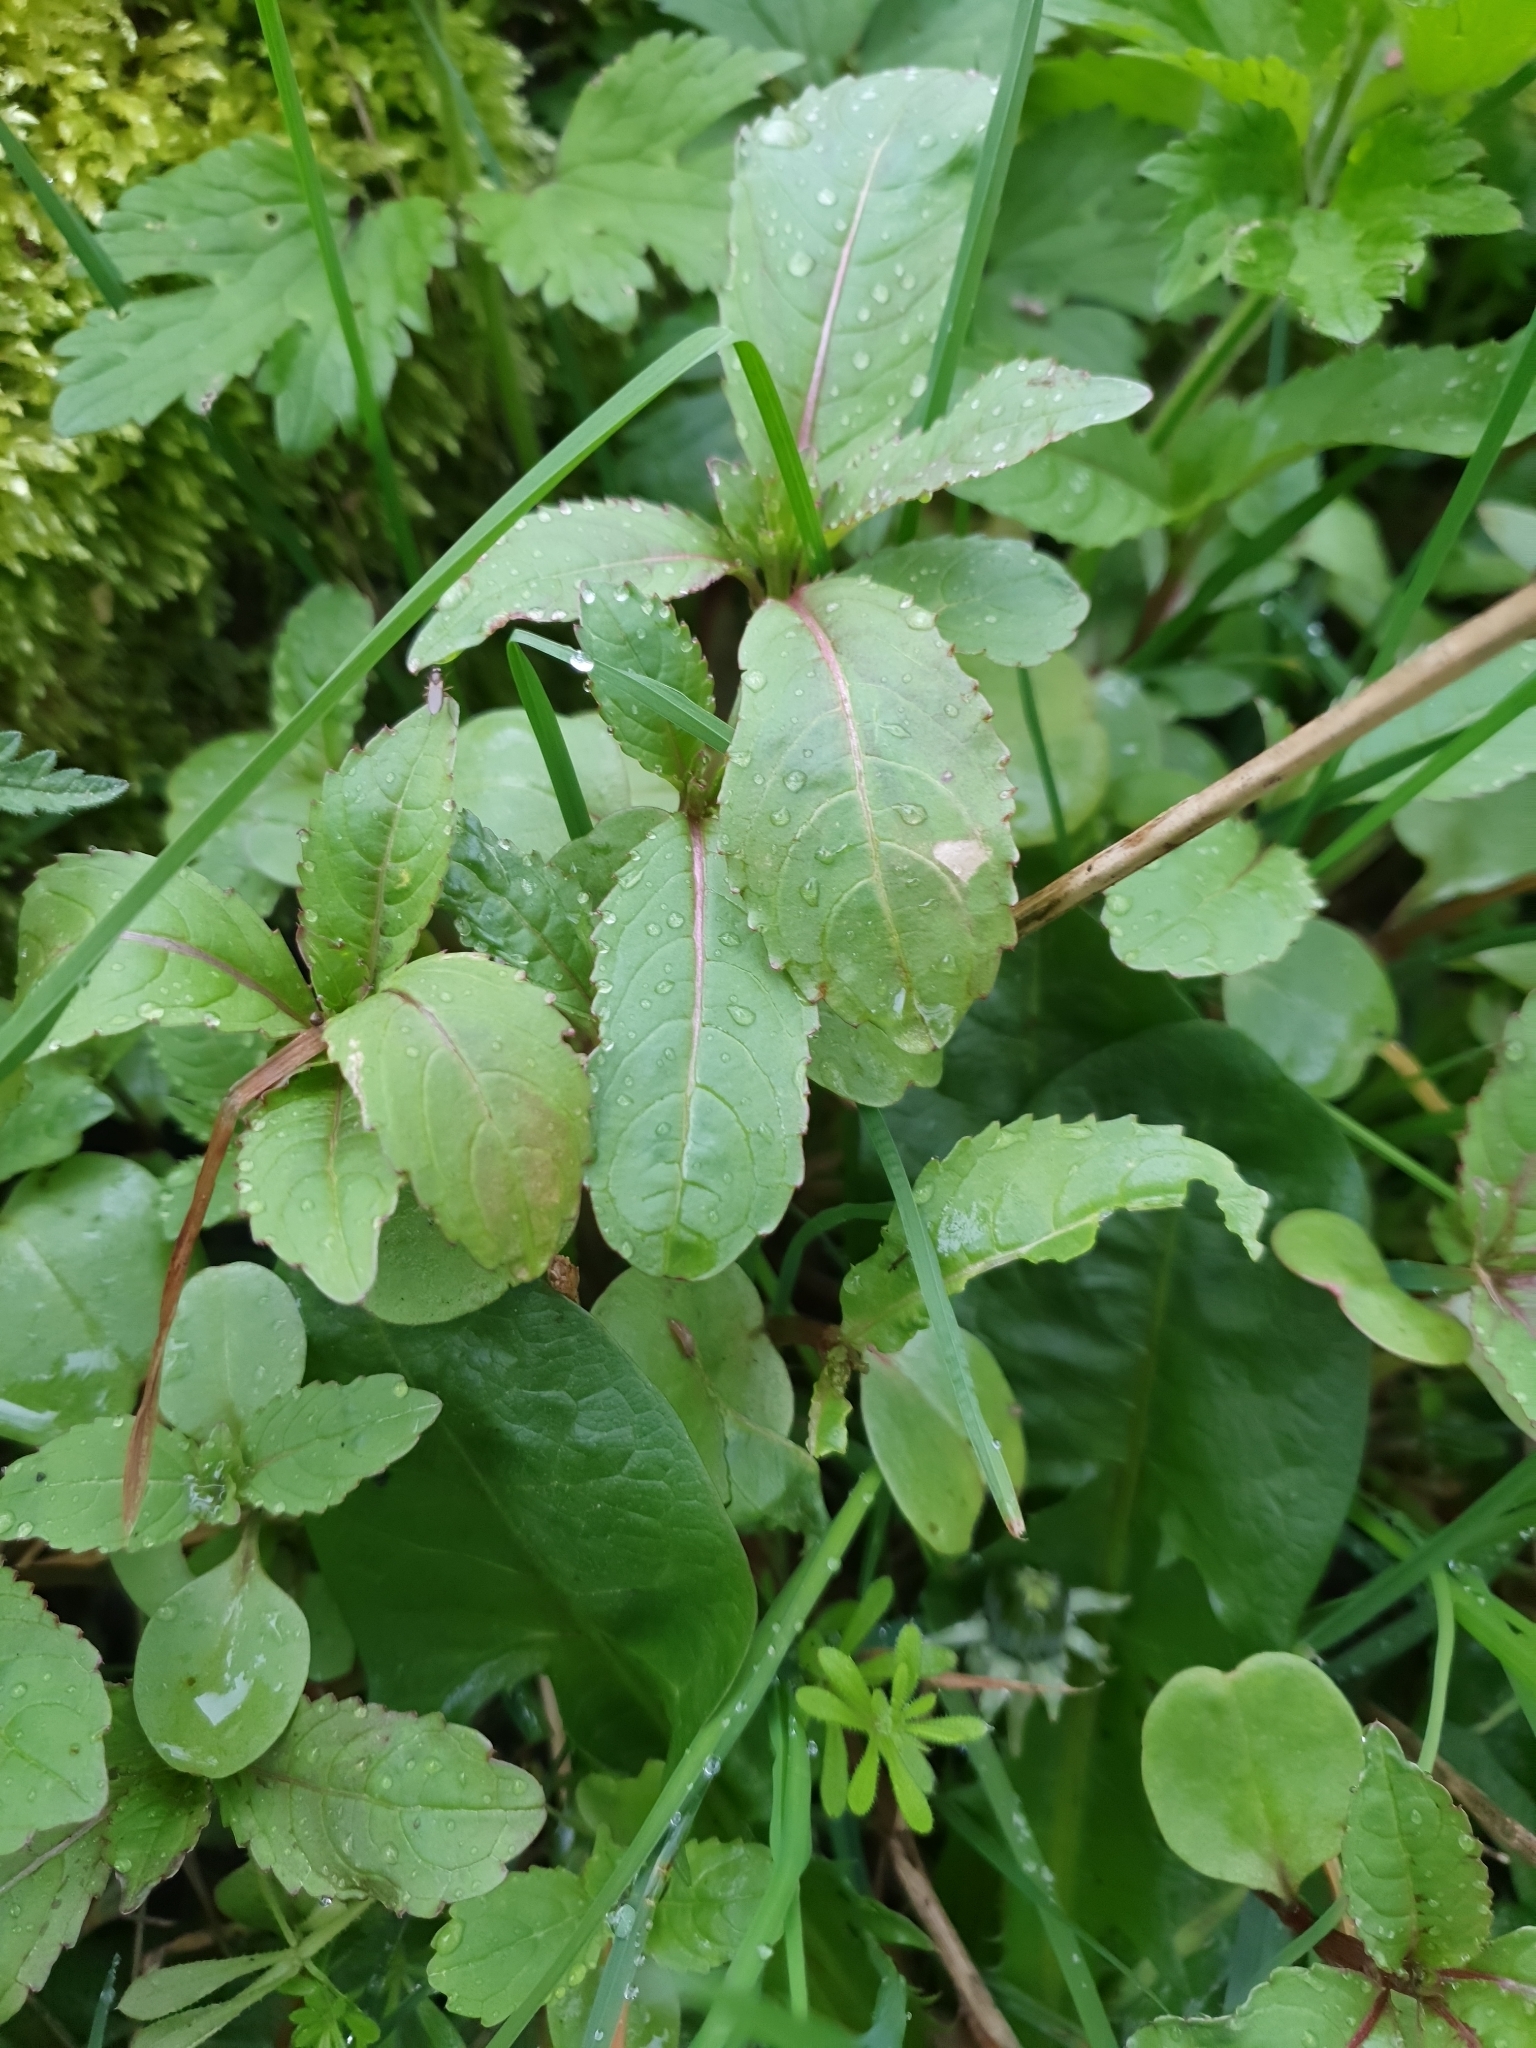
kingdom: Plantae
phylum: Tracheophyta
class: Magnoliopsida
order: Ericales
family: Balsaminaceae
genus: Impatiens
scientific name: Impatiens glandulifera
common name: Himalayan balsam
